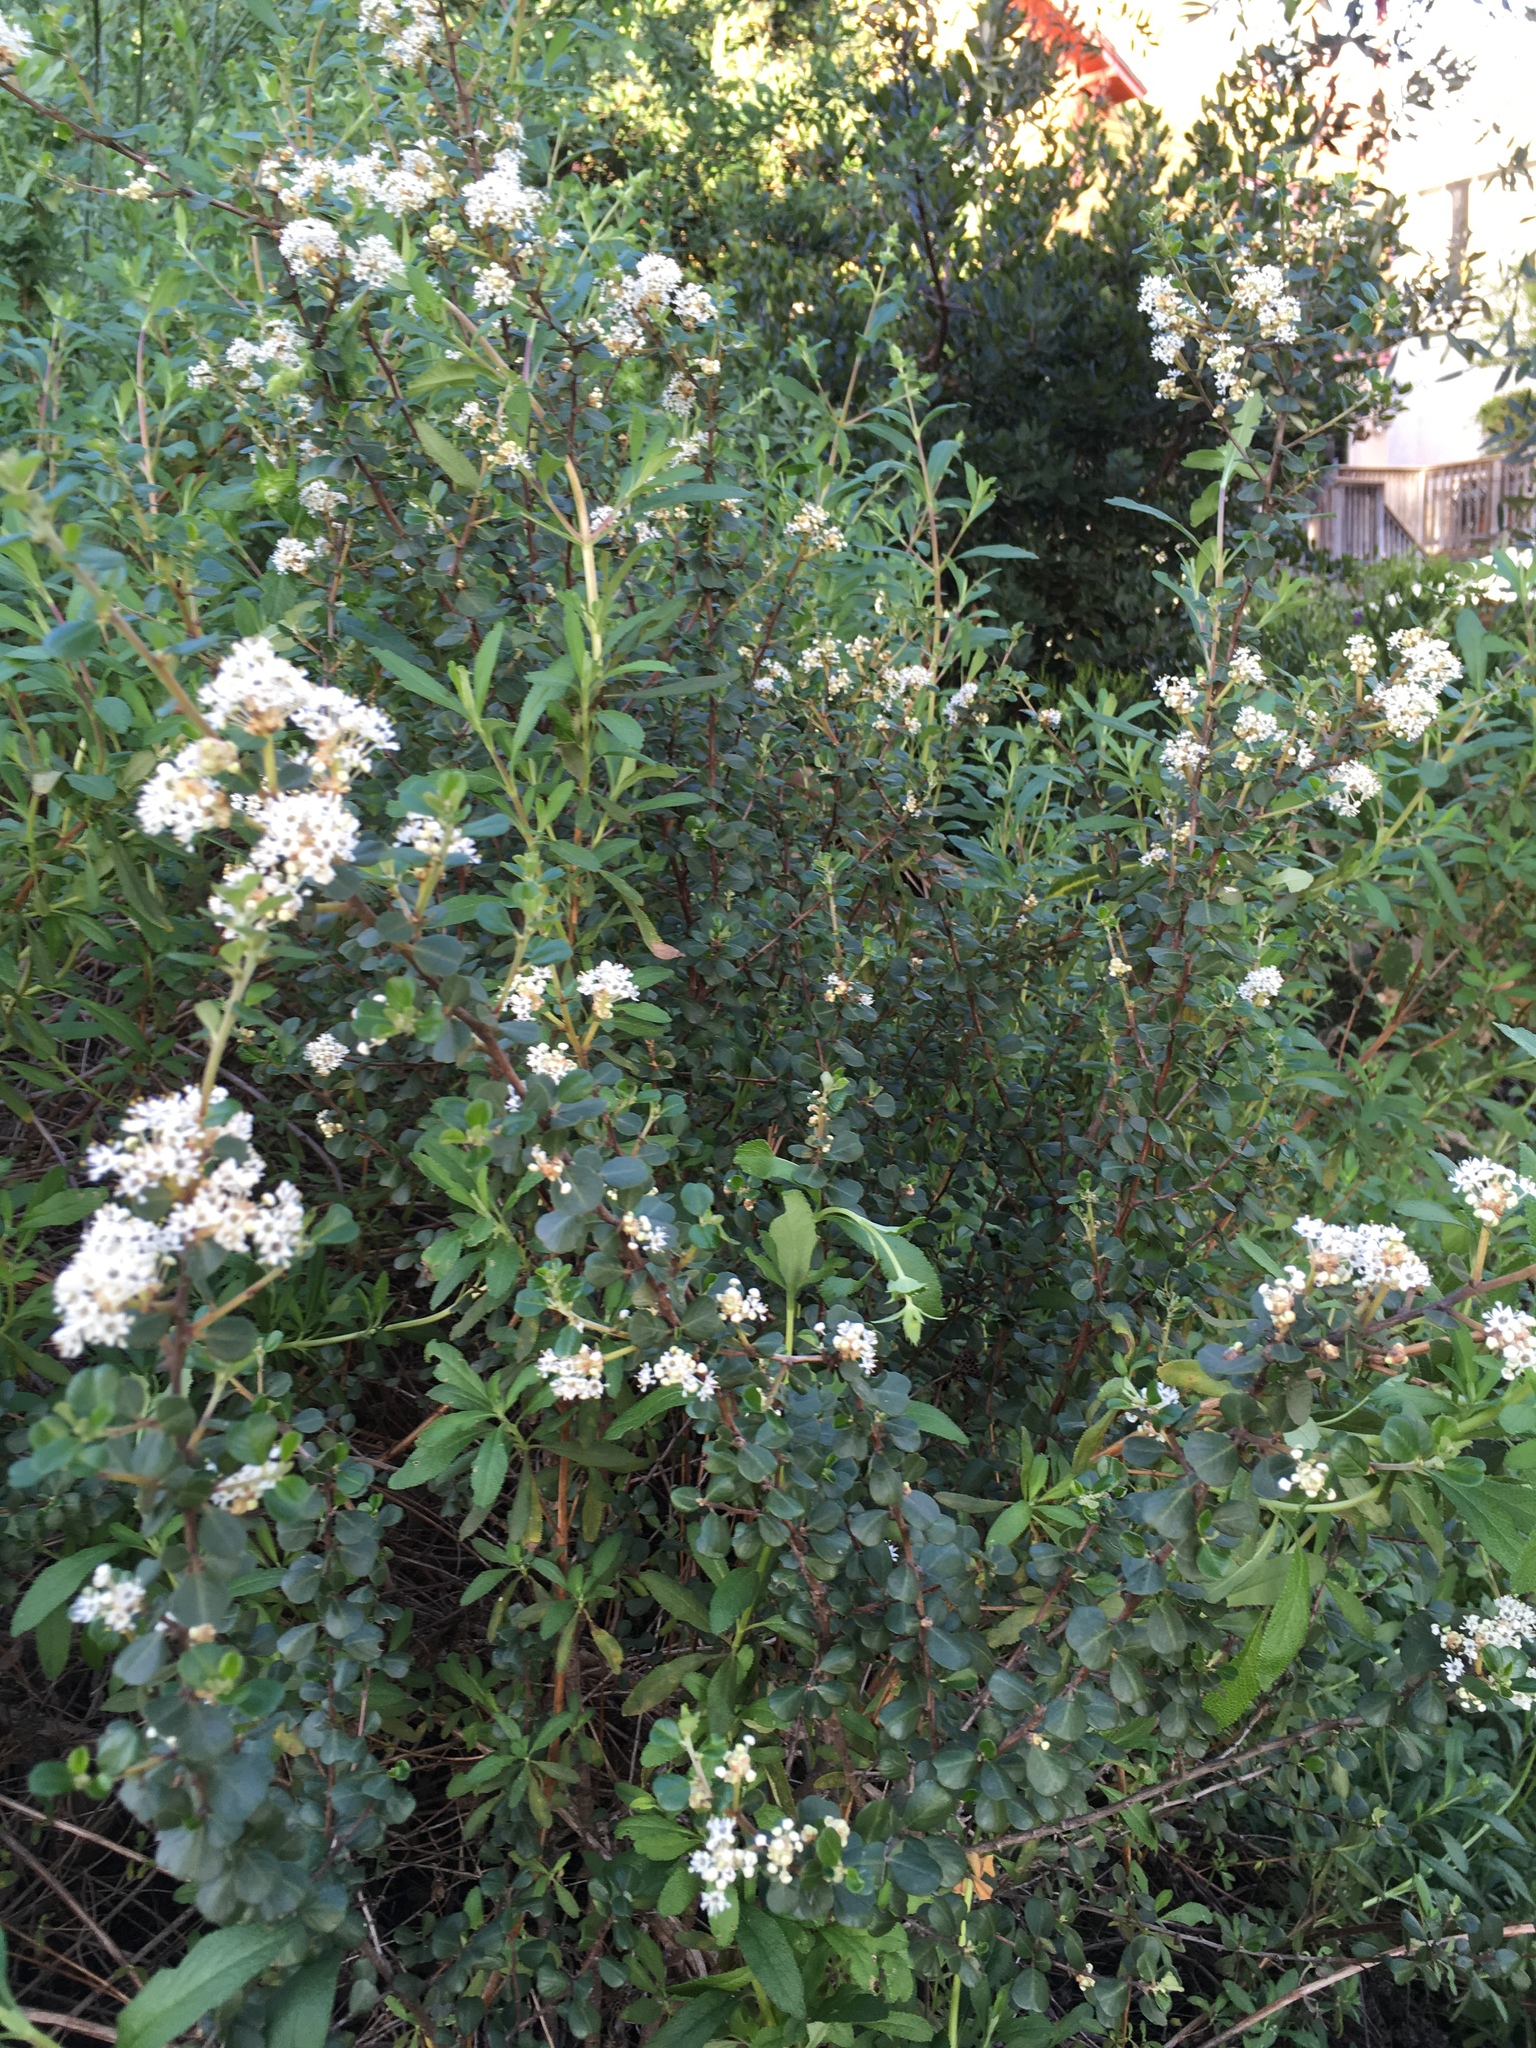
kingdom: Plantae
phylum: Tracheophyta
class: Magnoliopsida
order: Rosales
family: Rhamnaceae
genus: Ceanothus
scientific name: Ceanothus verrucosus
